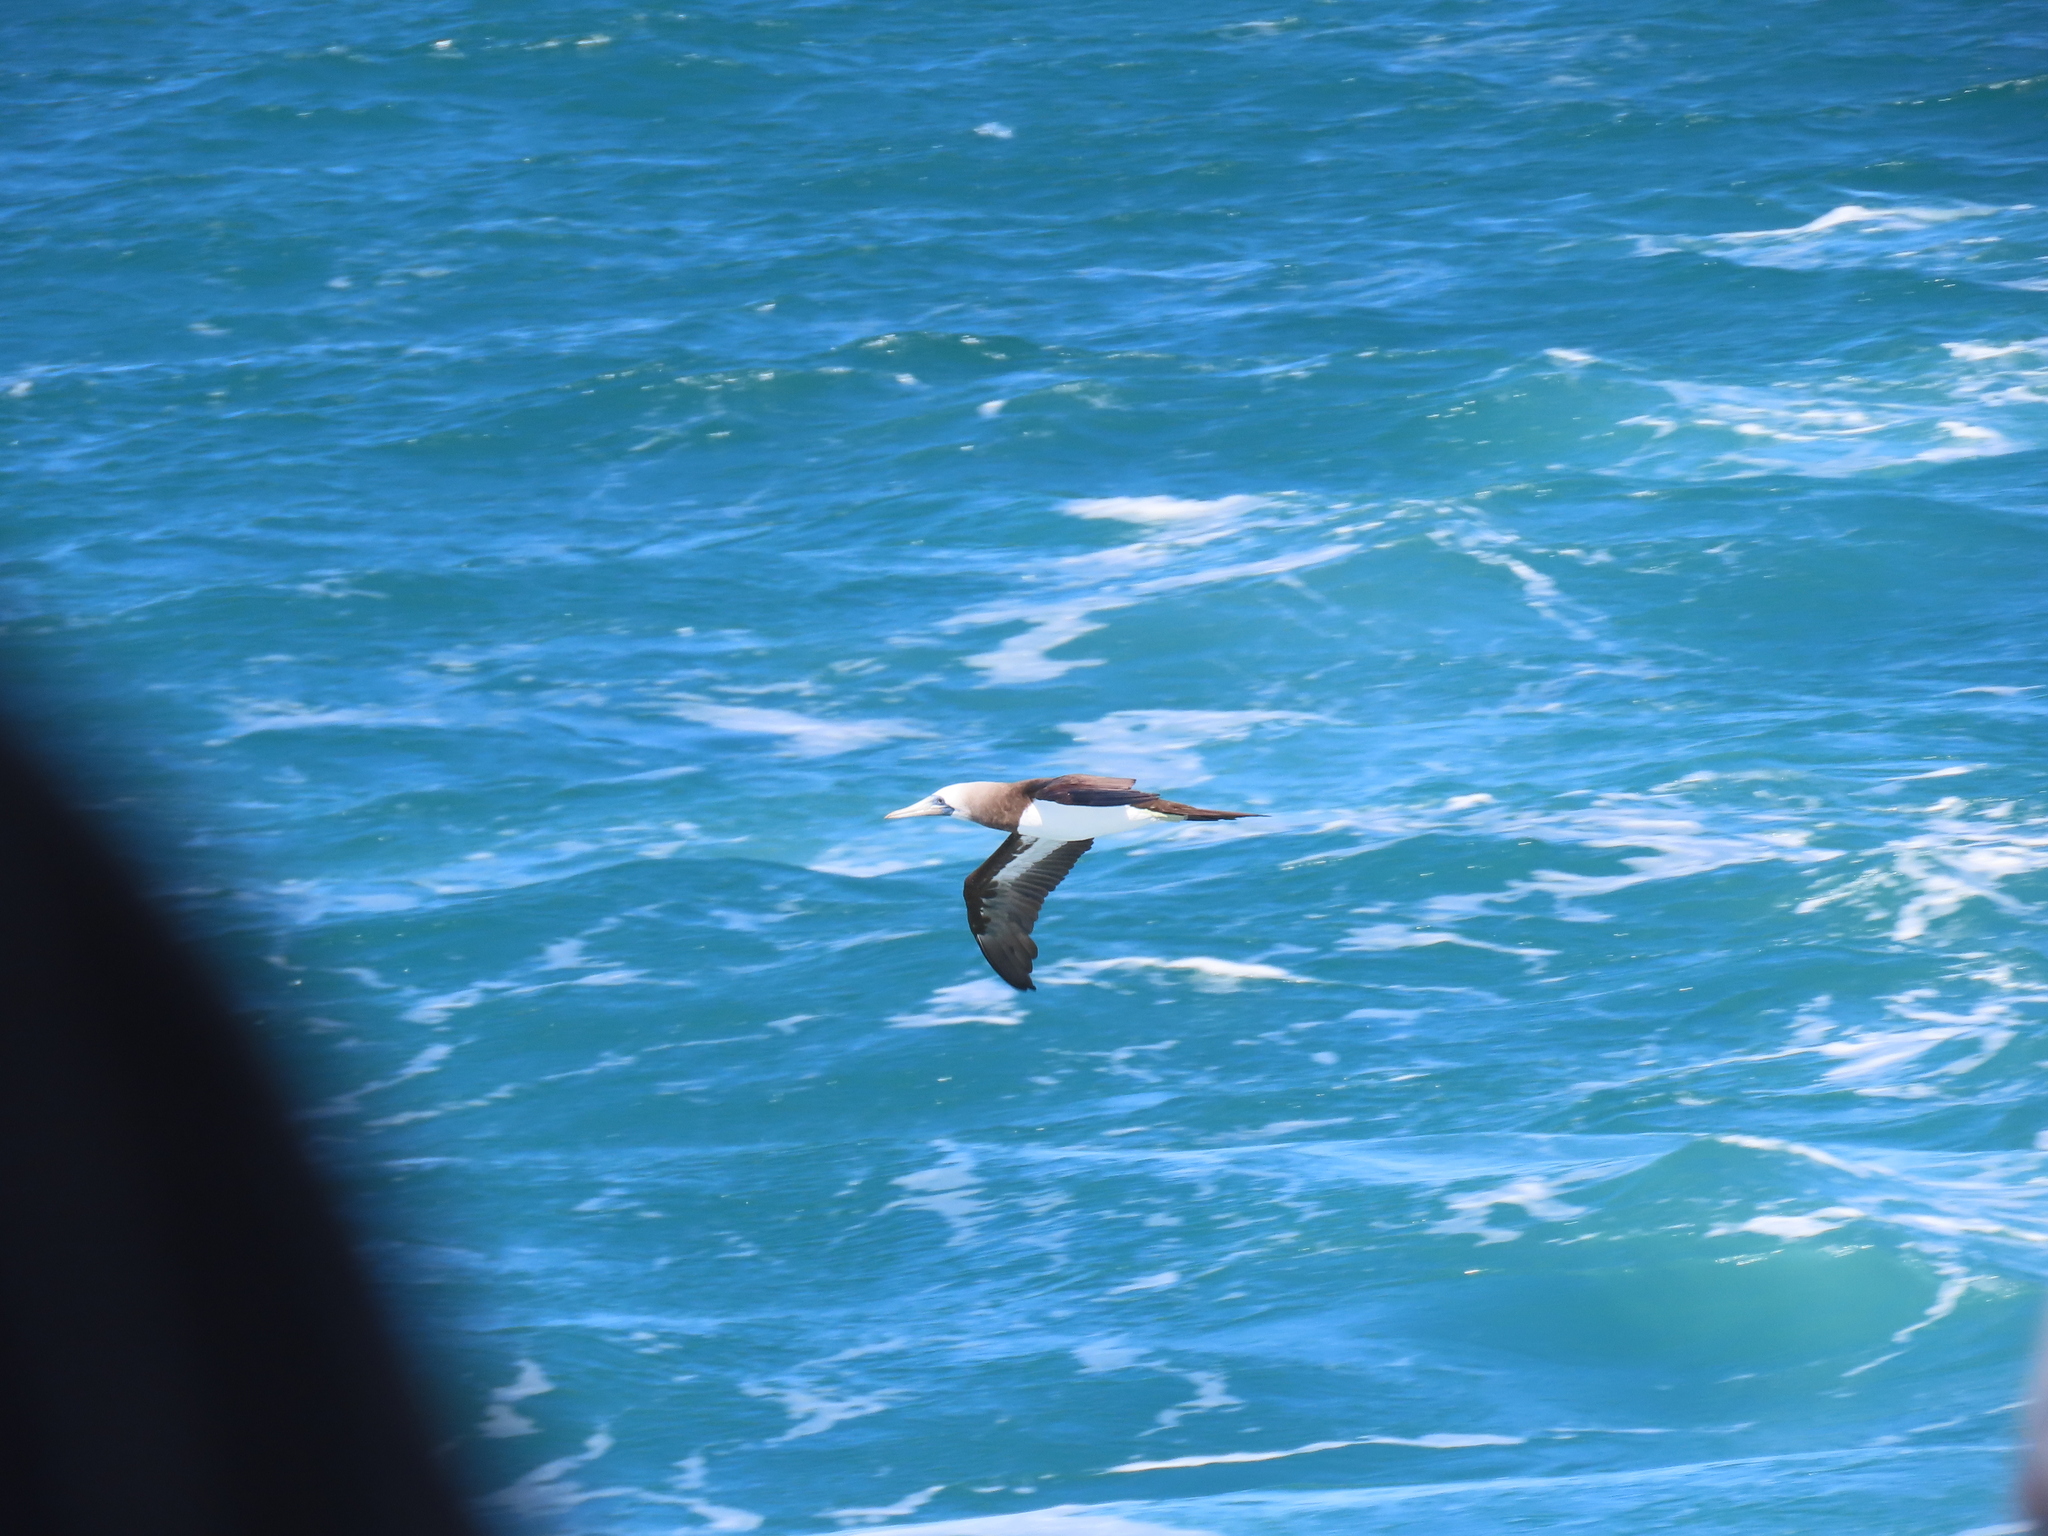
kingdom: Animalia
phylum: Chordata
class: Aves
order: Suliformes
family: Sulidae
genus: Sula
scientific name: Sula leucogaster
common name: Brown booby
